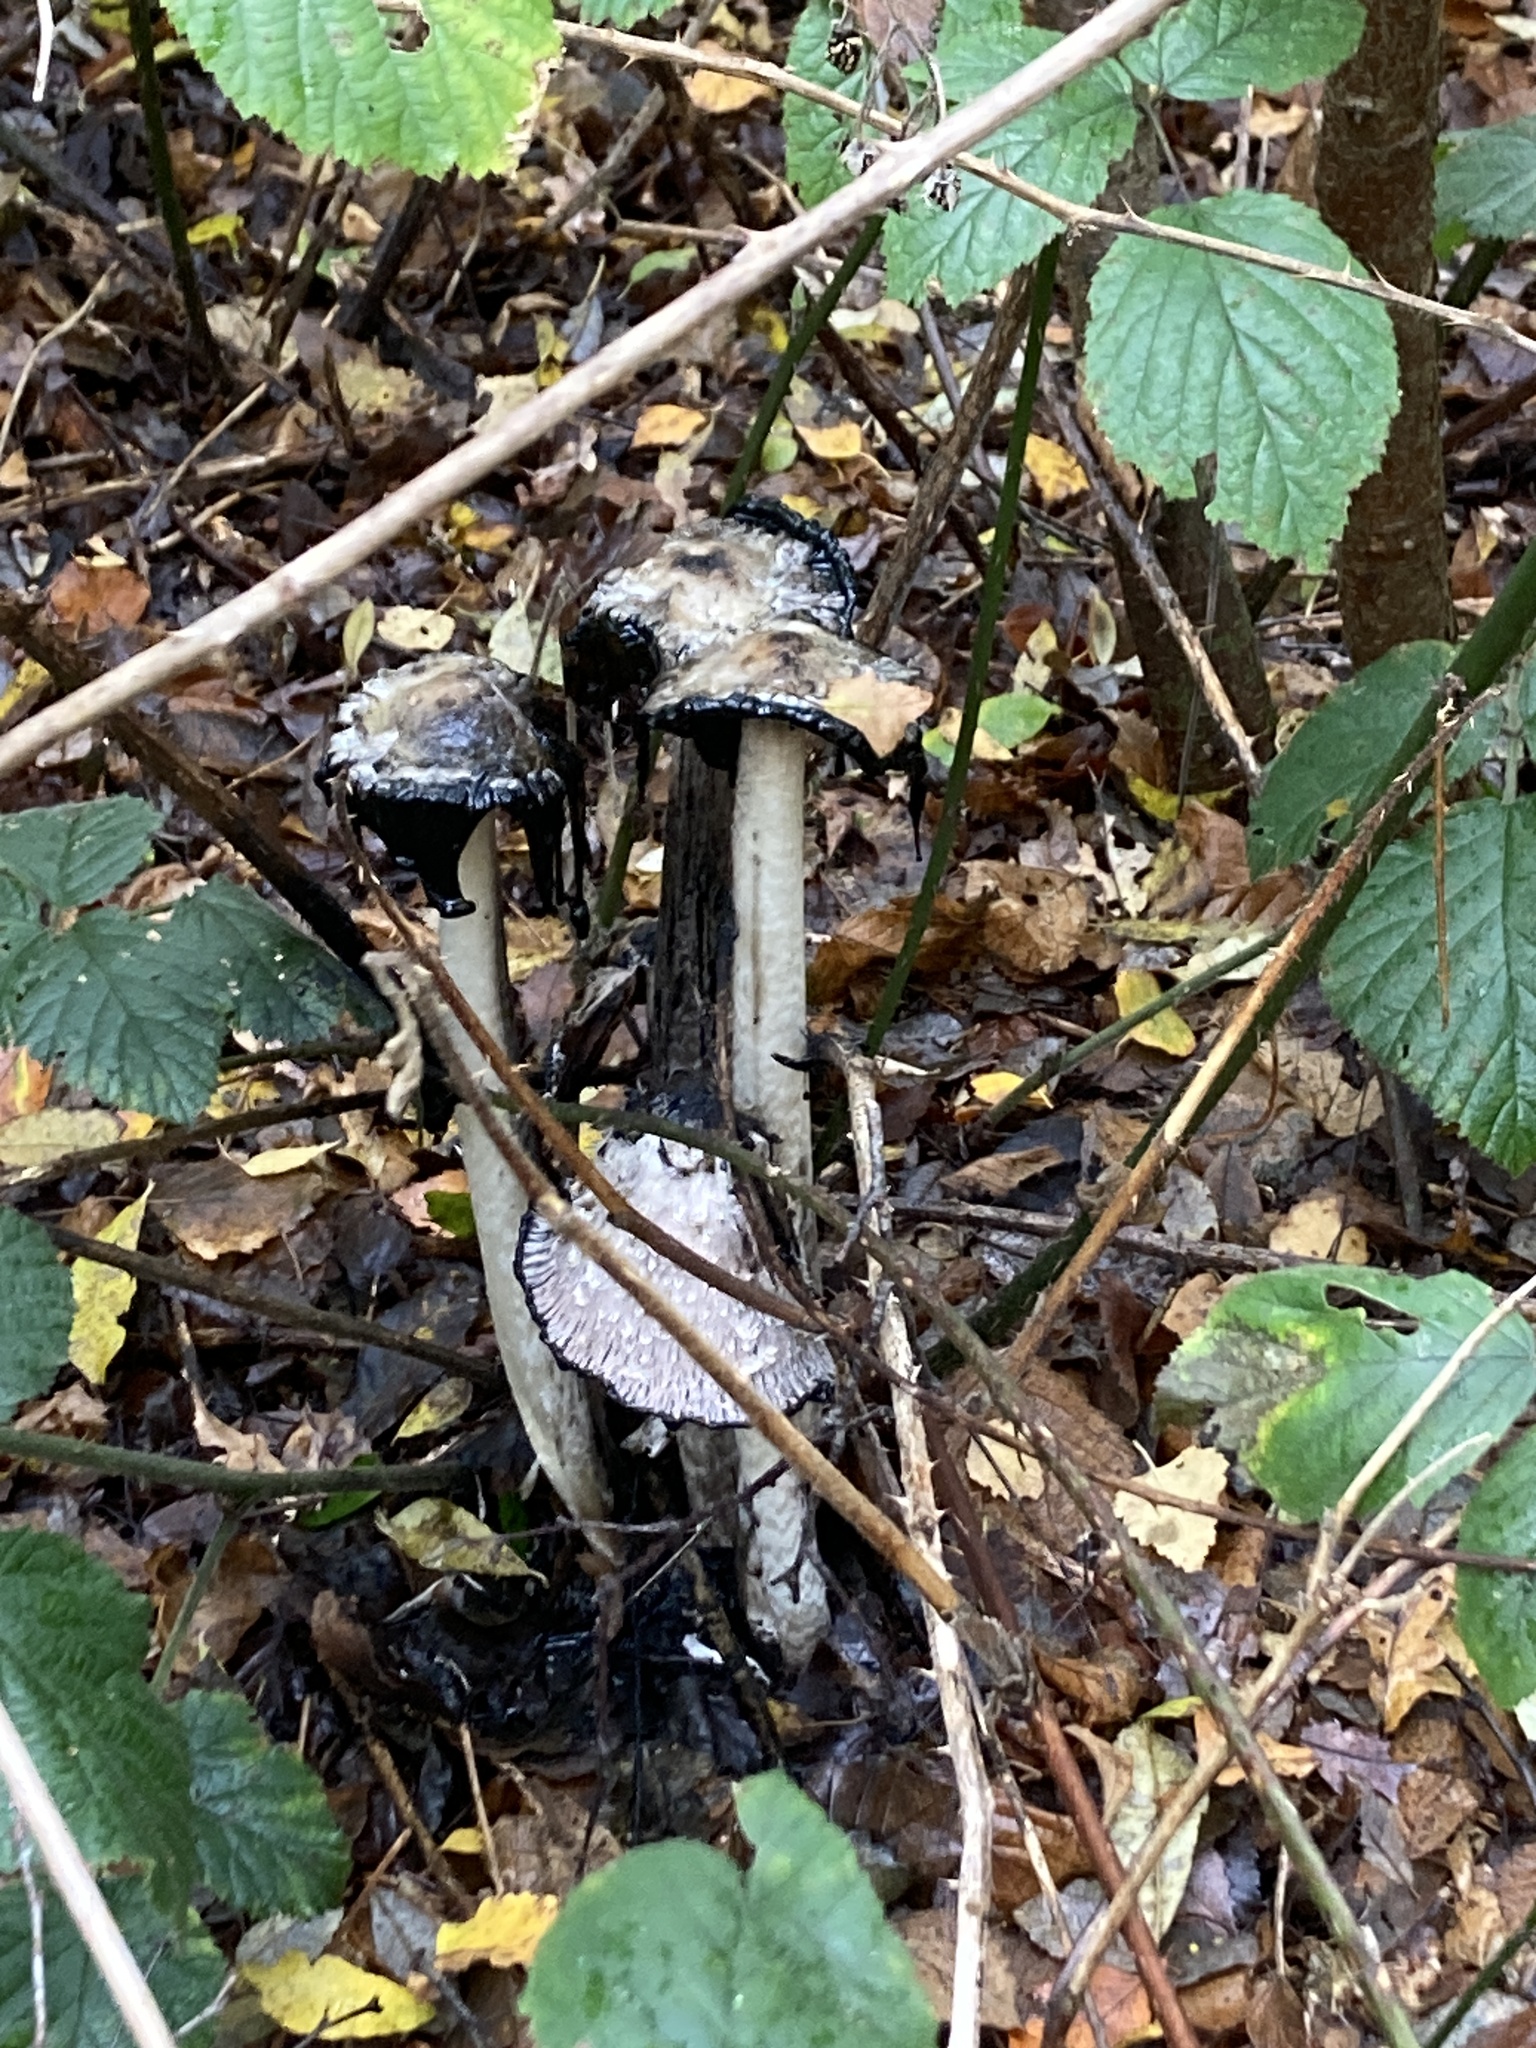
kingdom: Fungi
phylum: Basidiomycota
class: Agaricomycetes
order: Agaricales
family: Agaricaceae
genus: Coprinus
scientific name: Coprinus comatus
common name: Lawyer's wig
